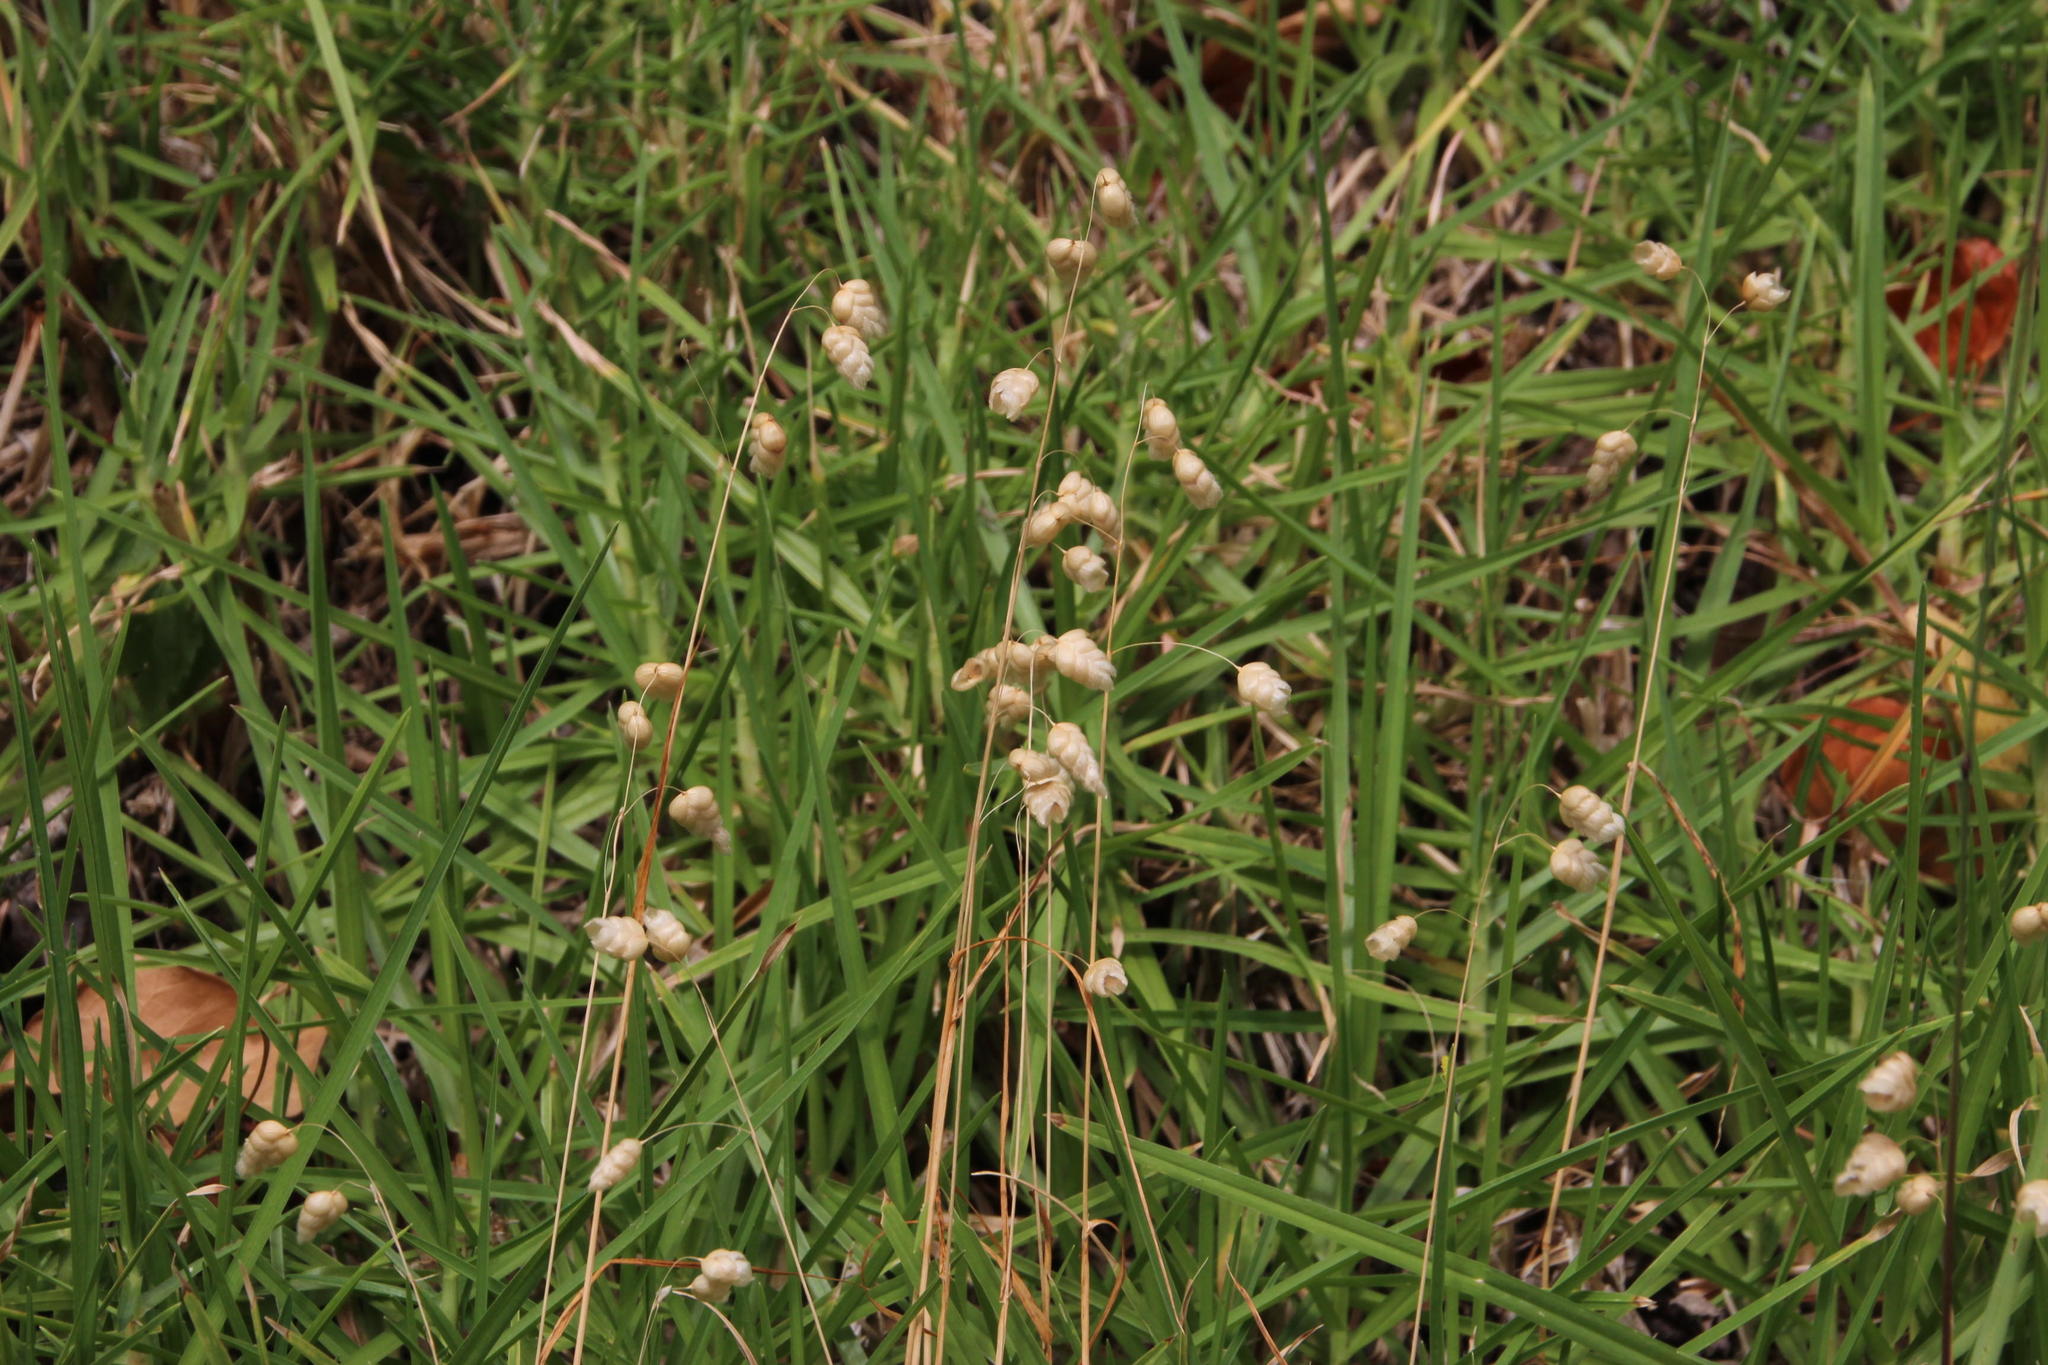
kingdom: Plantae
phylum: Tracheophyta
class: Liliopsida
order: Poales
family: Poaceae
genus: Briza
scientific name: Briza maxima
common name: Big quakinggrass
